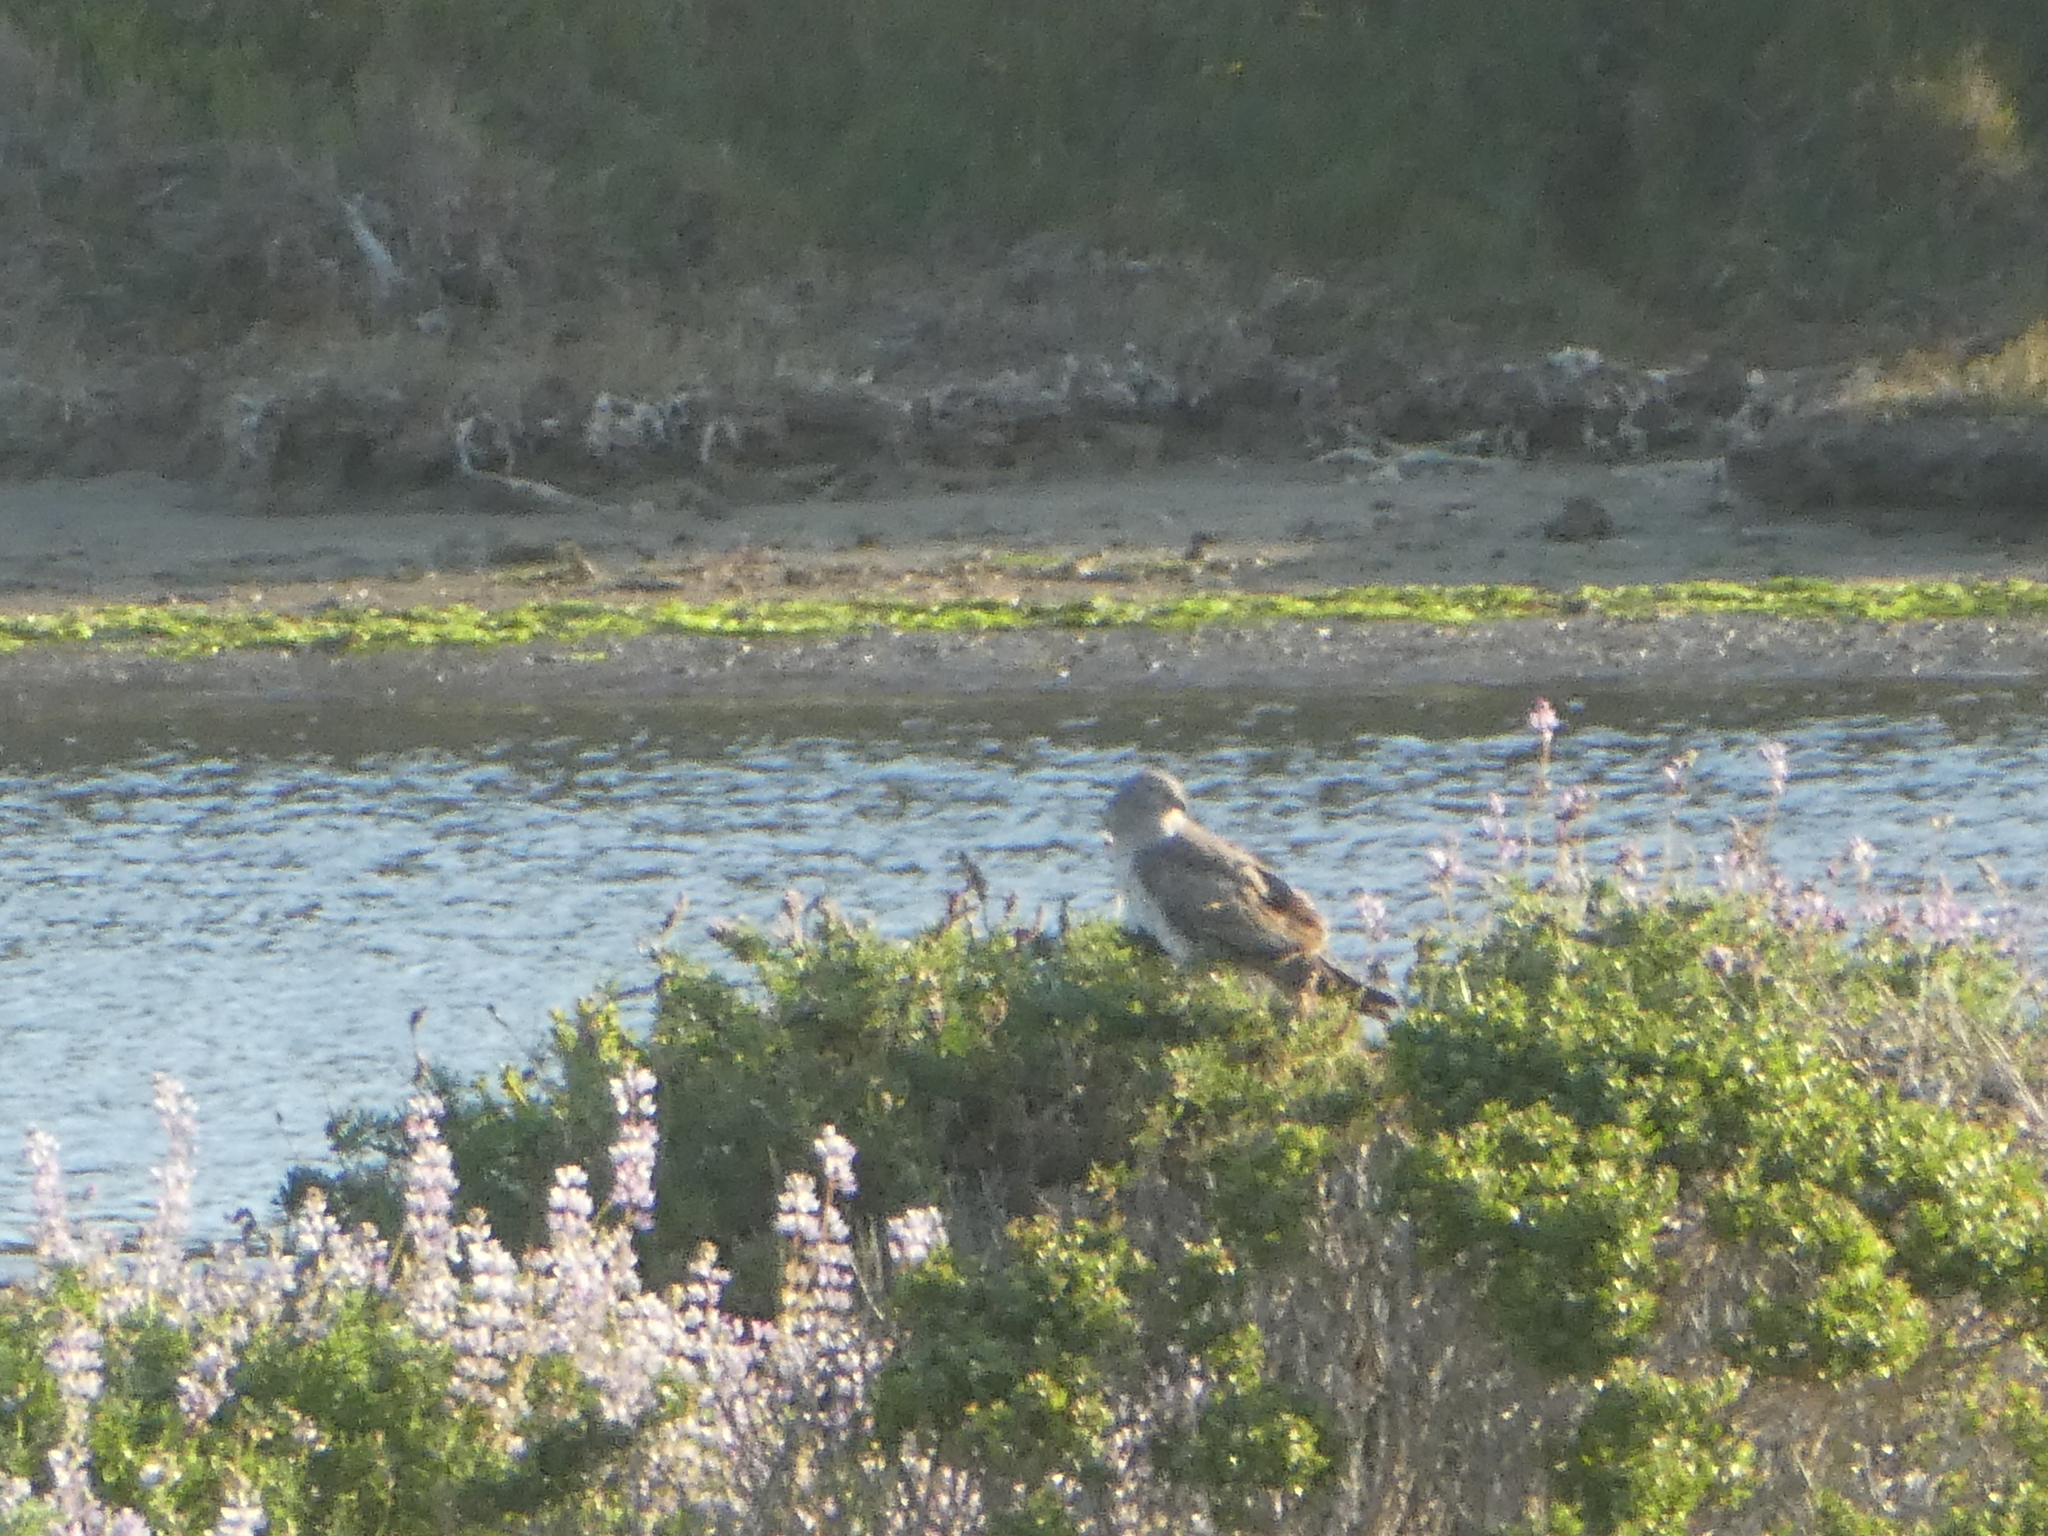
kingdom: Animalia
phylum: Chordata
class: Aves
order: Accipitriformes
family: Accipitridae
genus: Circus
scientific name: Circus cyaneus
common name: Hen harrier
